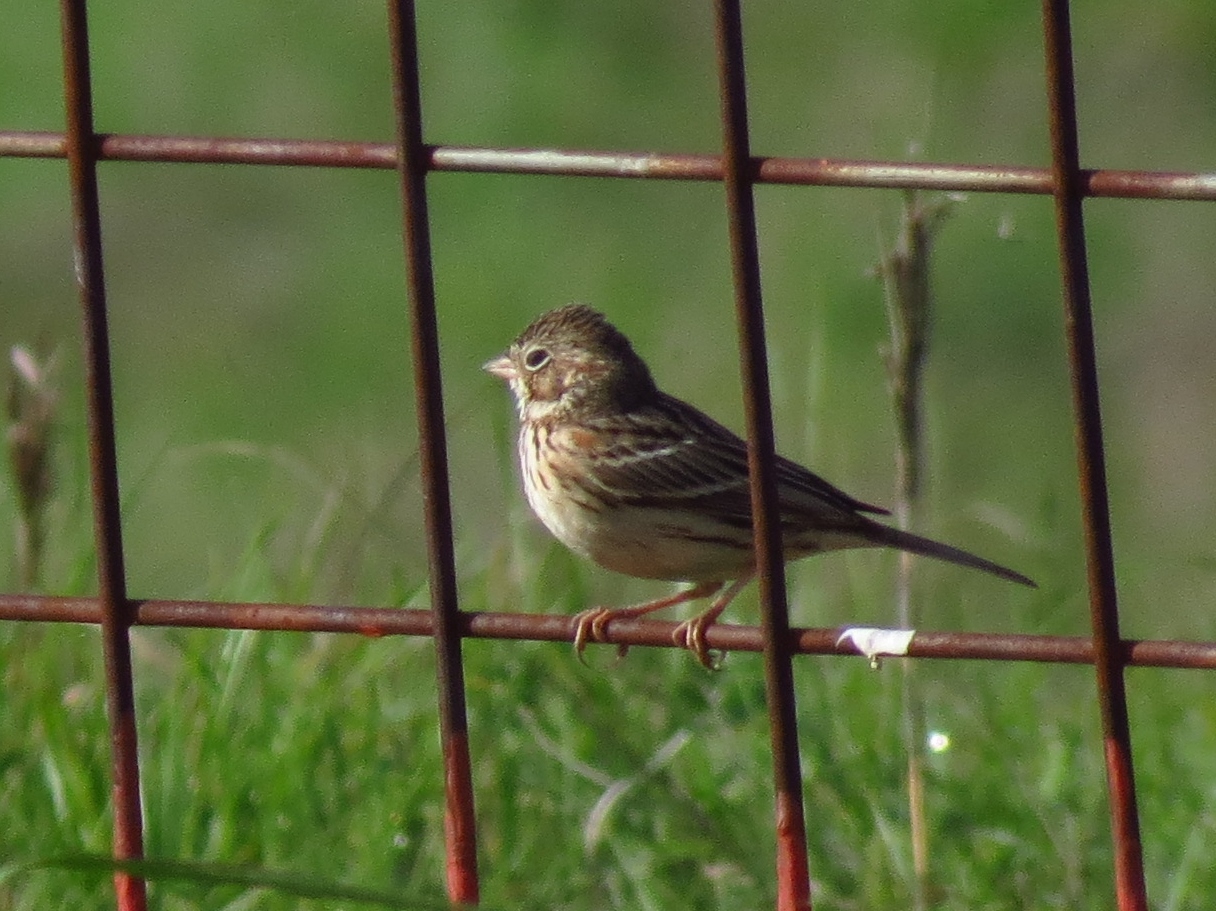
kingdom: Animalia
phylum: Chordata
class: Aves
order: Passeriformes
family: Passerellidae
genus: Pooecetes
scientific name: Pooecetes gramineus
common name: Vesper sparrow
